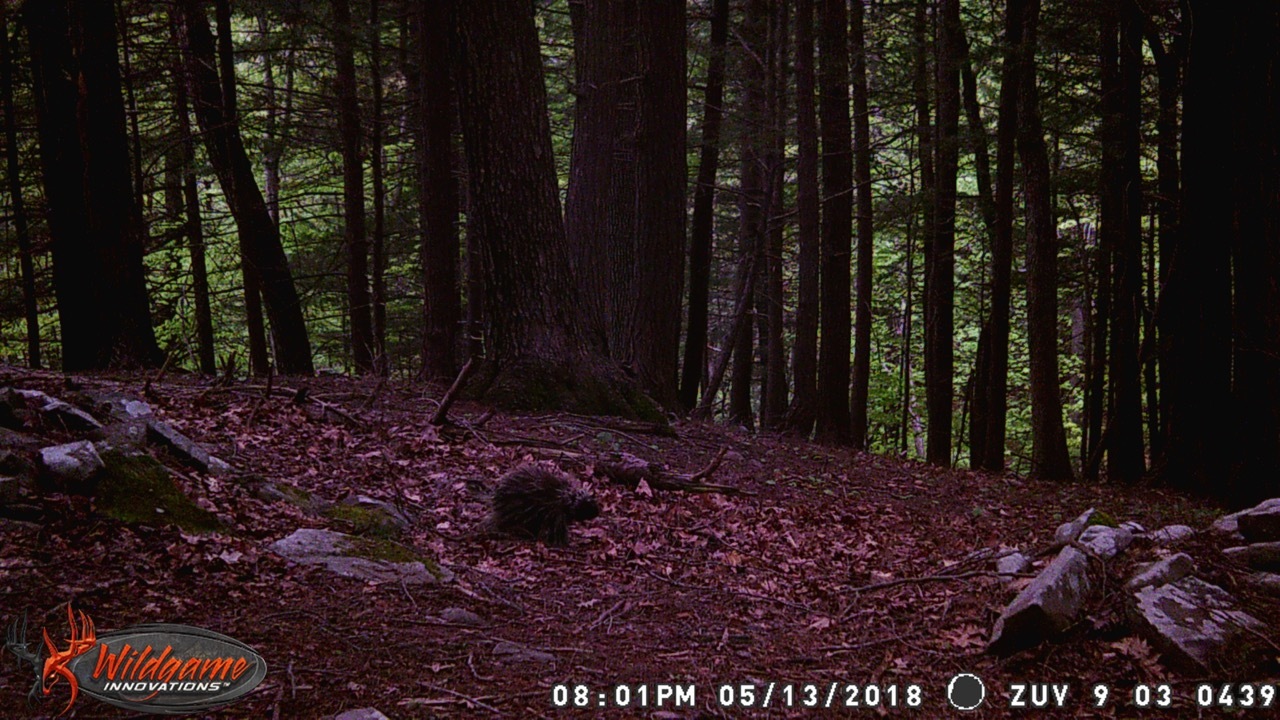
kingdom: Animalia
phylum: Chordata
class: Mammalia
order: Rodentia
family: Erethizontidae
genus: Erethizon
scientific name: Erethizon dorsatus
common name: North american porcupine
